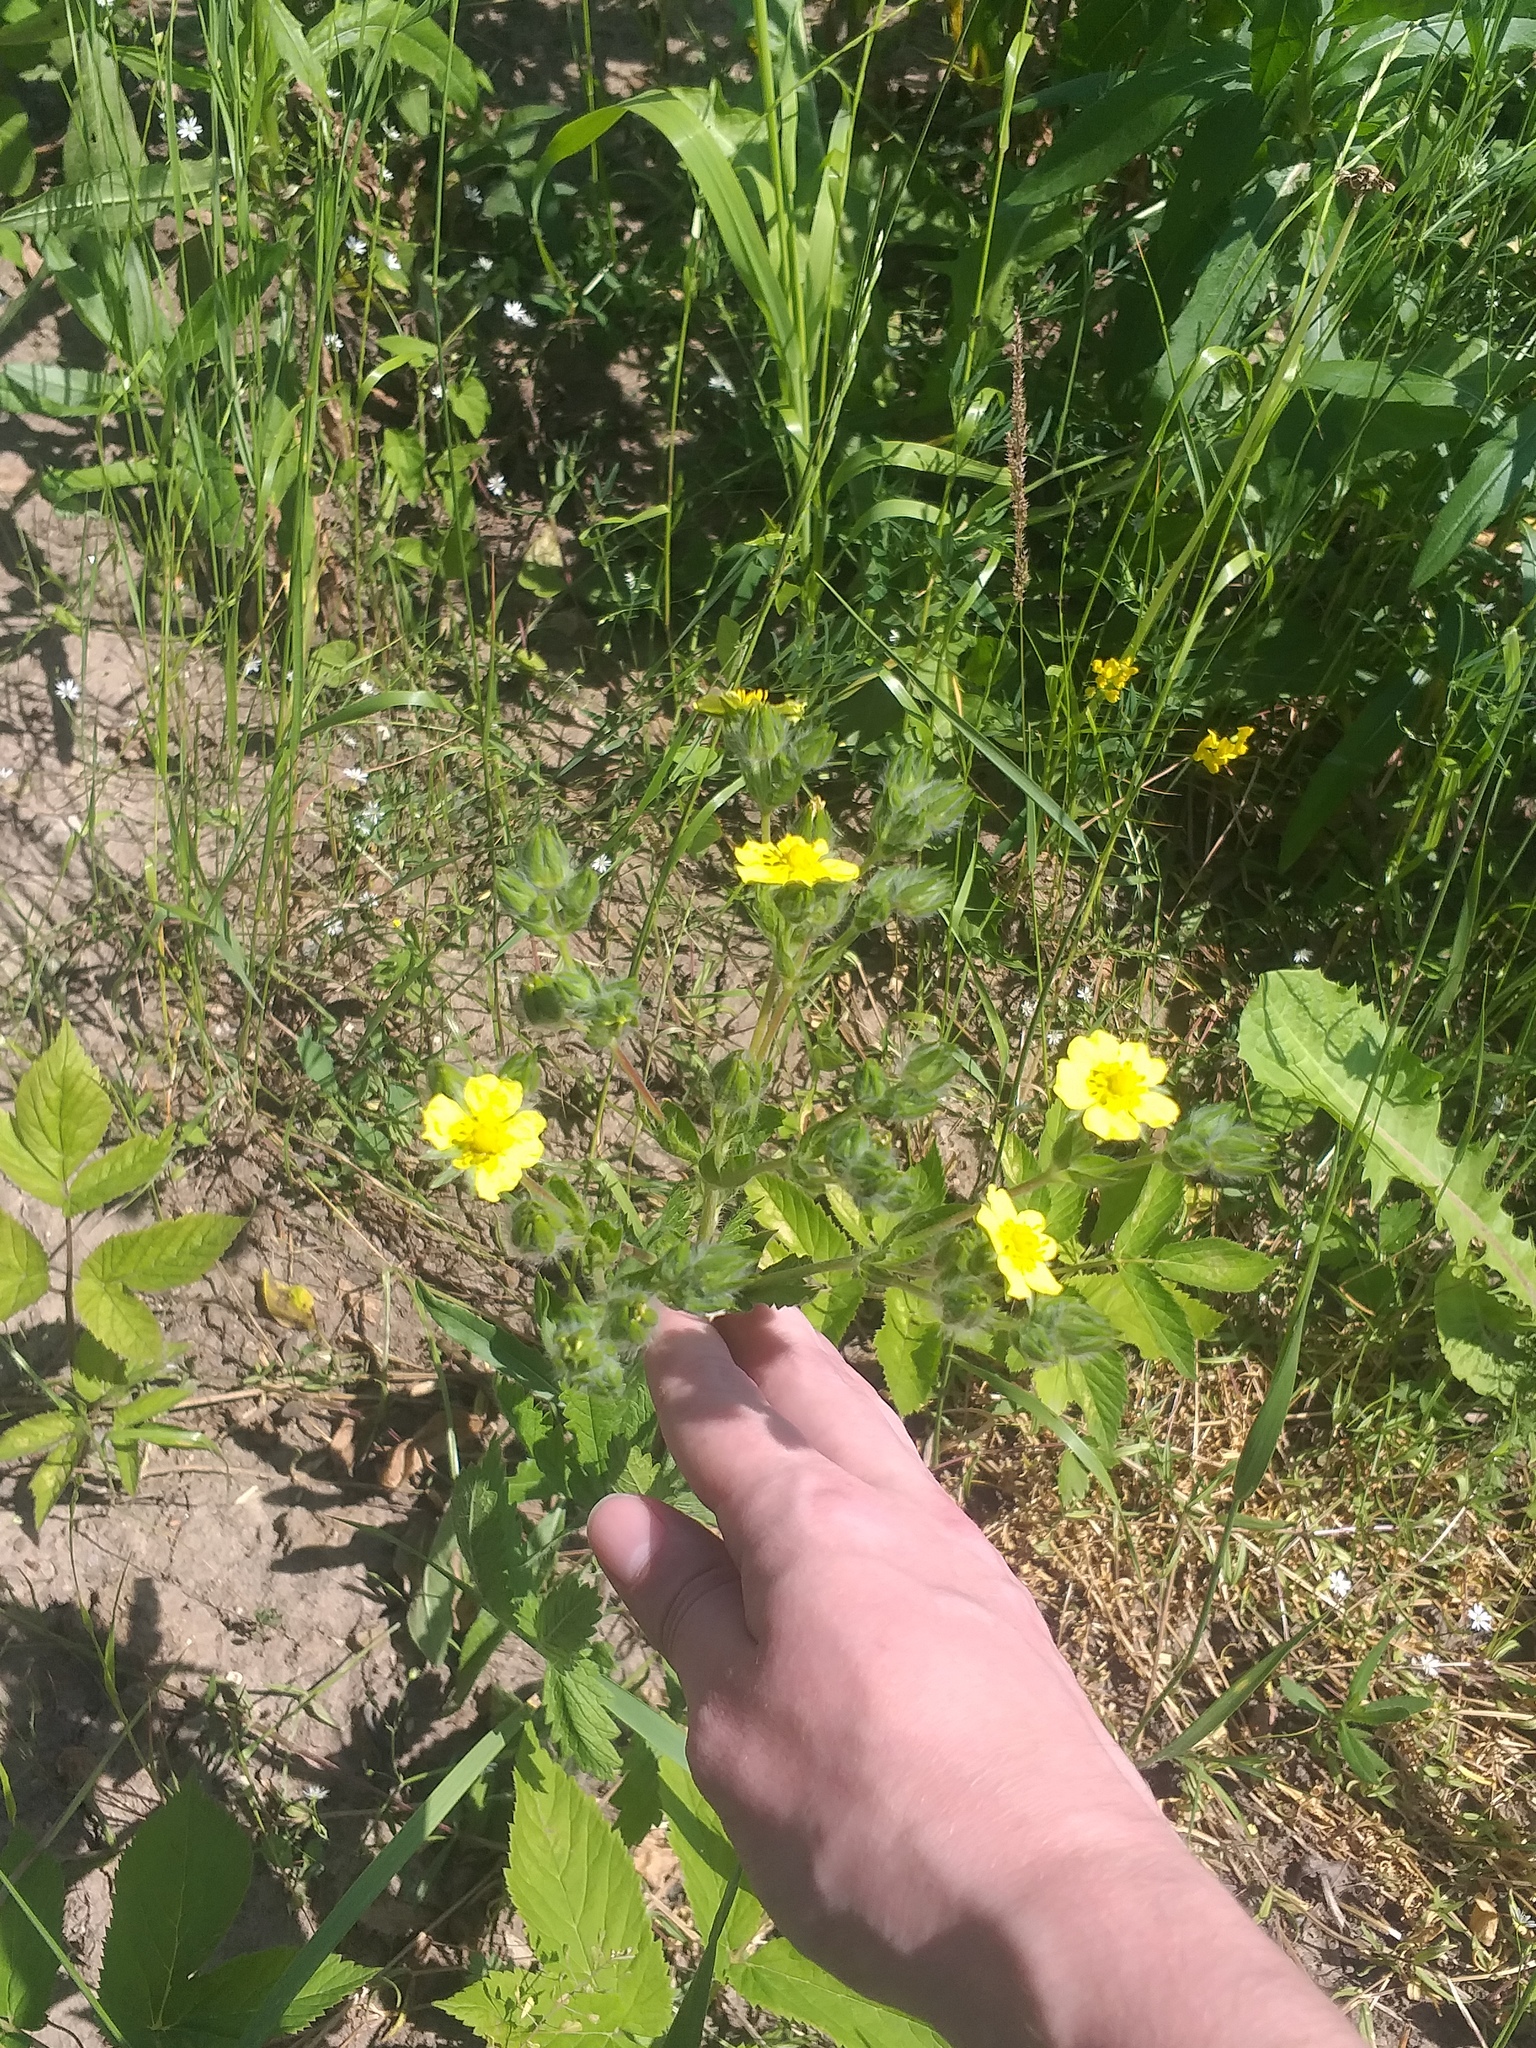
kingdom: Plantae
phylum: Tracheophyta
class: Magnoliopsida
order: Rosales
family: Rosaceae
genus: Potentilla
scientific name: Potentilla recta
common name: Sulphur cinquefoil
